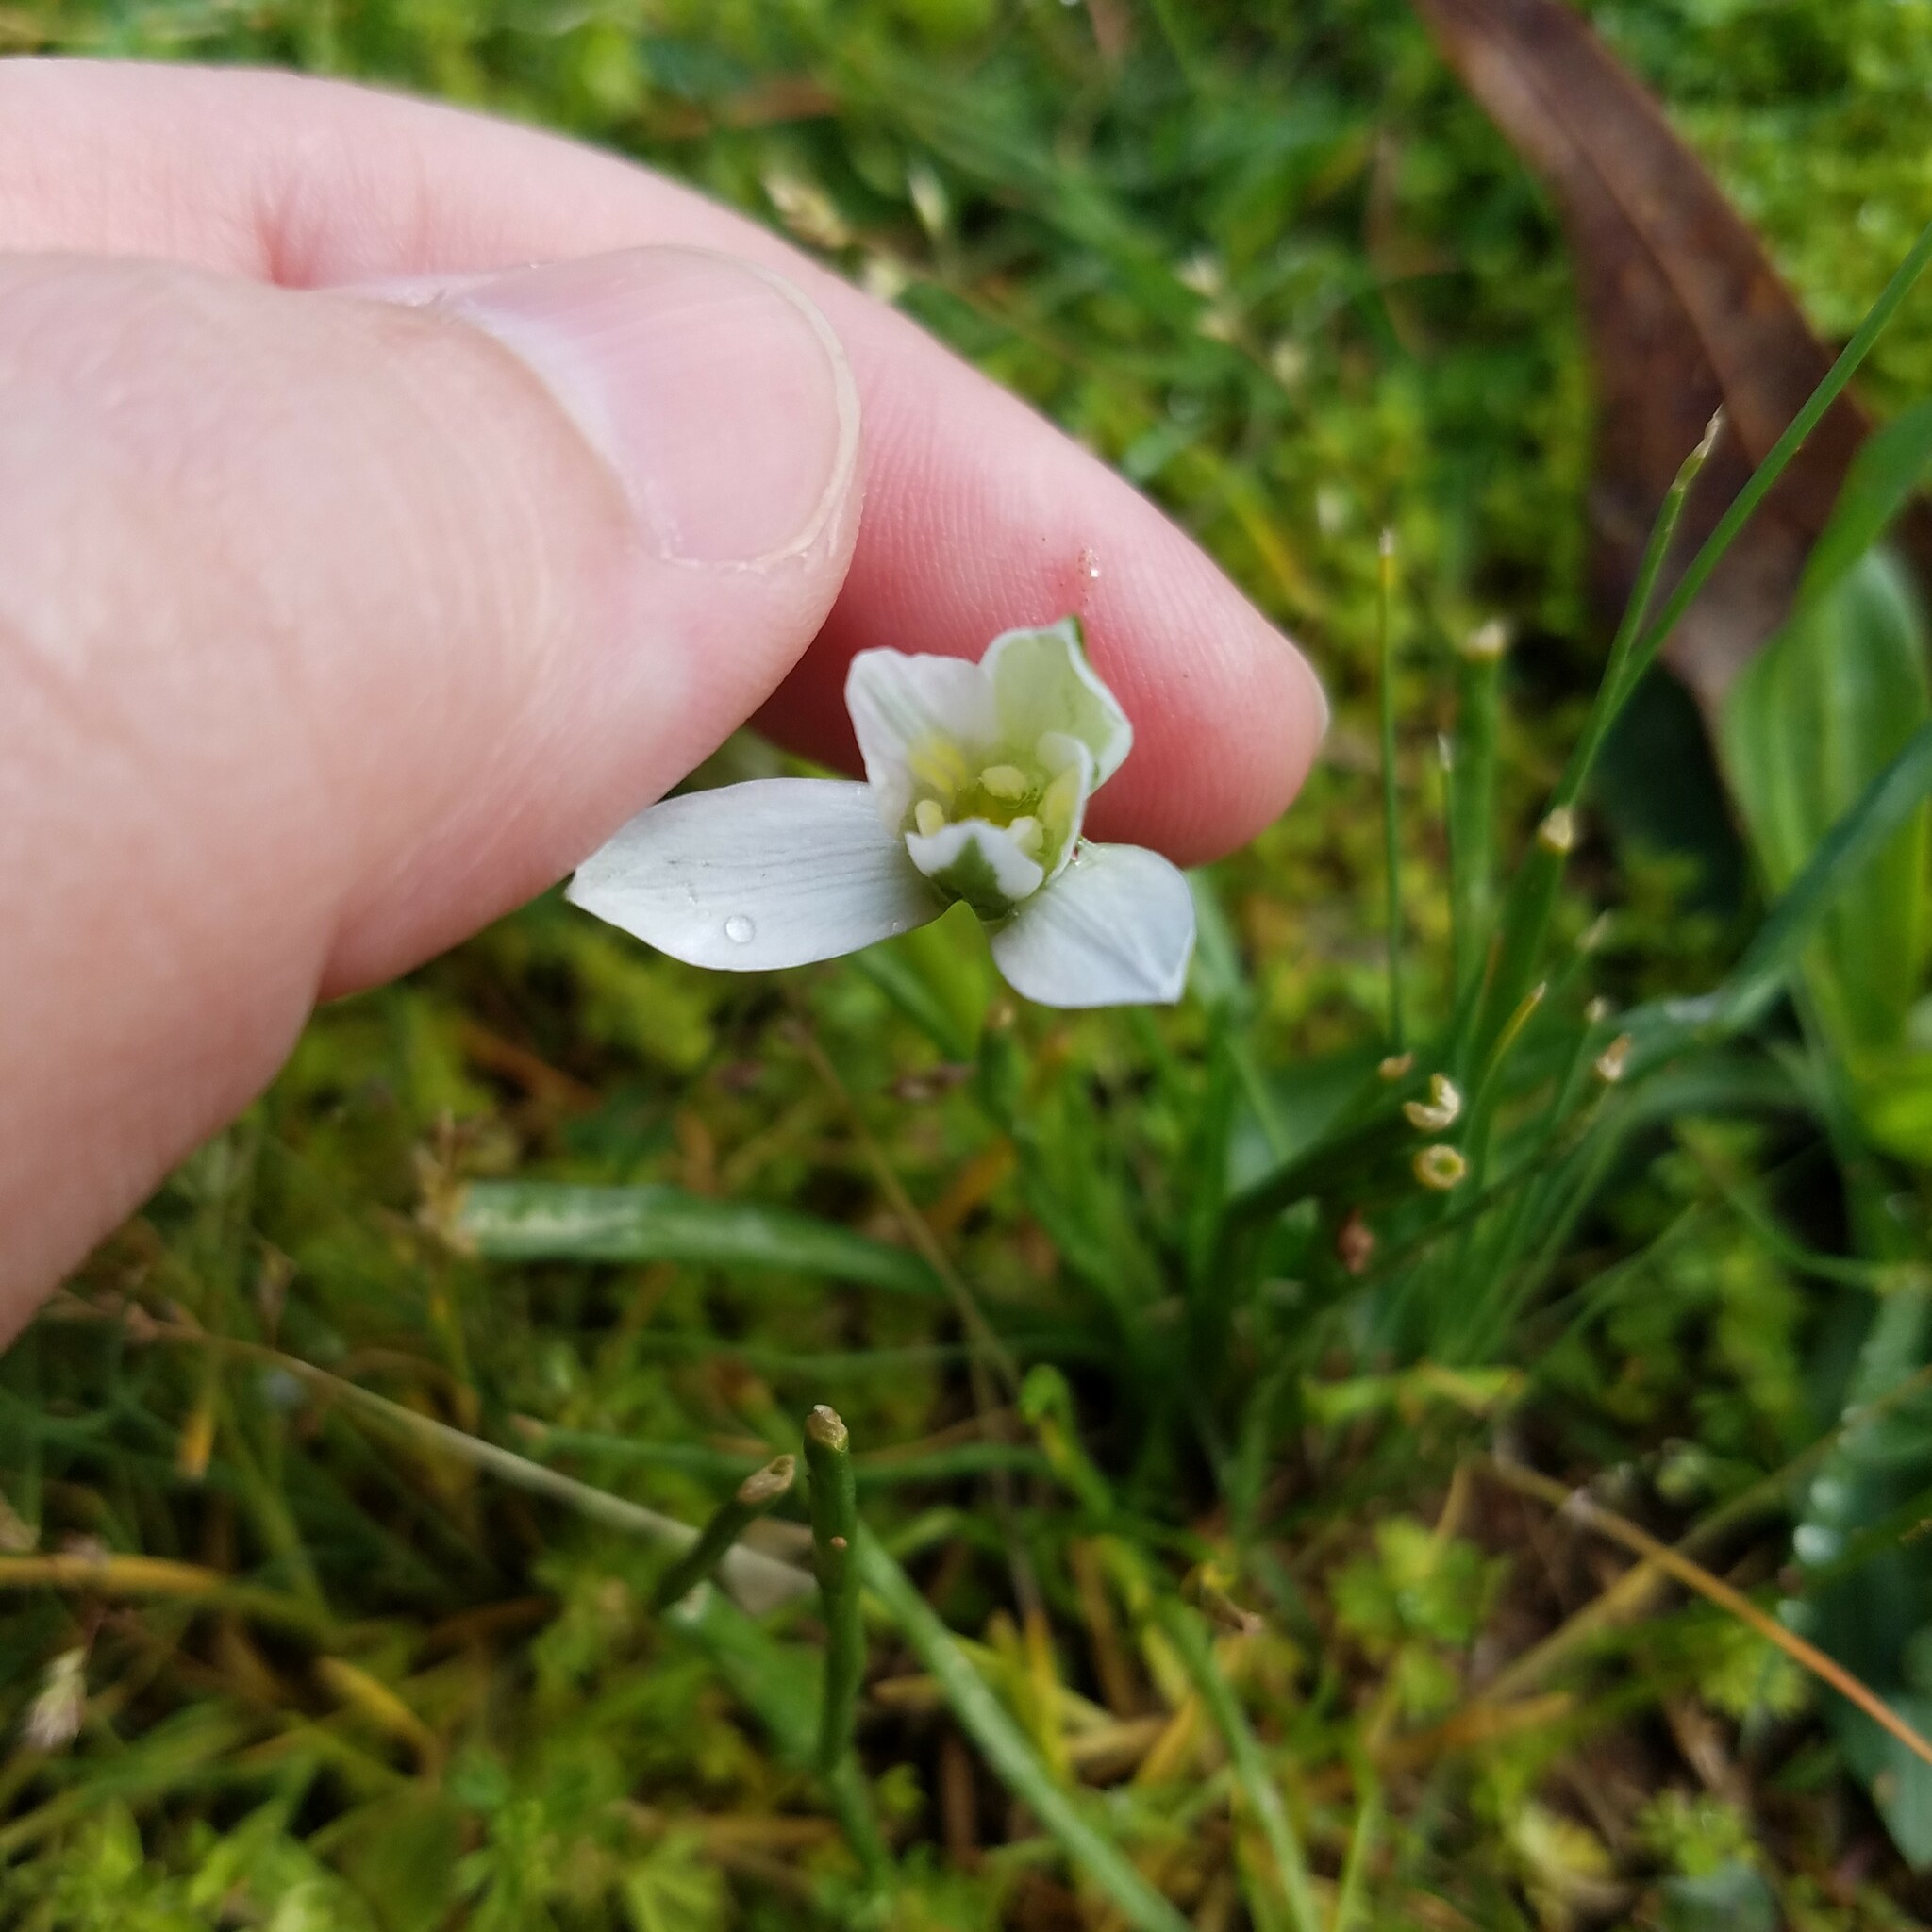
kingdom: Plantae
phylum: Tracheophyta
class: Liliopsida
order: Asparagales
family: Asparagaceae
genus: Ornithogalum
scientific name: Ornithogalum umbellatum
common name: Garden star-of-bethlehem
